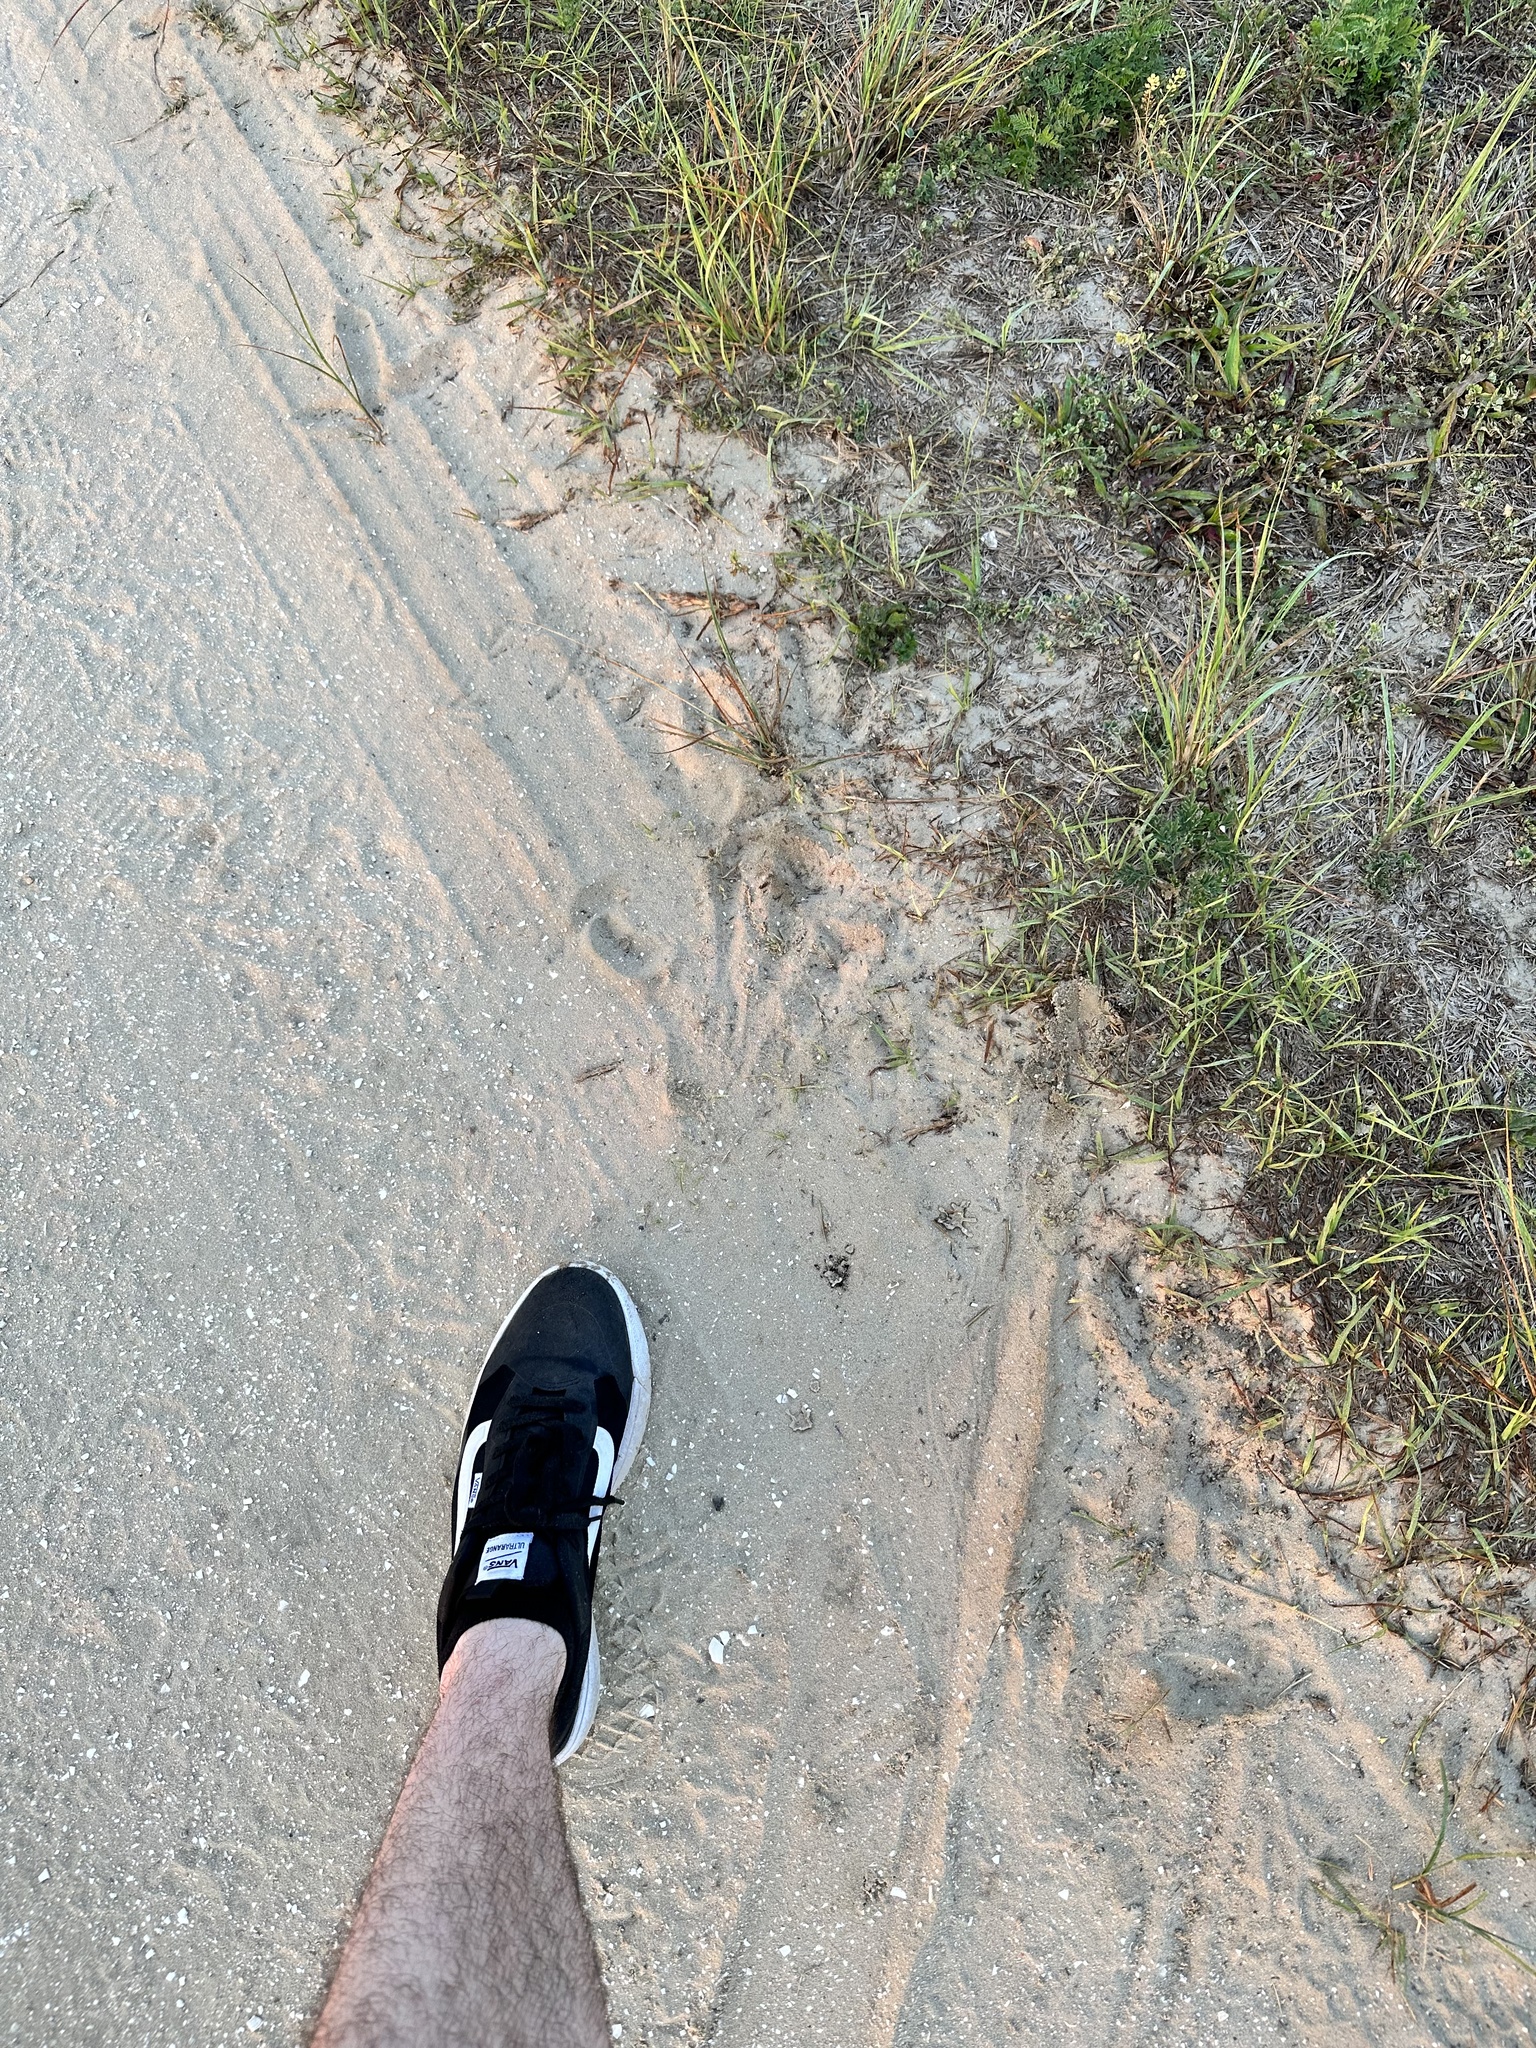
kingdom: Animalia
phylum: Chordata
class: Crocodylia
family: Alligatoridae
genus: Alligator
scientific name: Alligator mississippiensis
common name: American alligator
